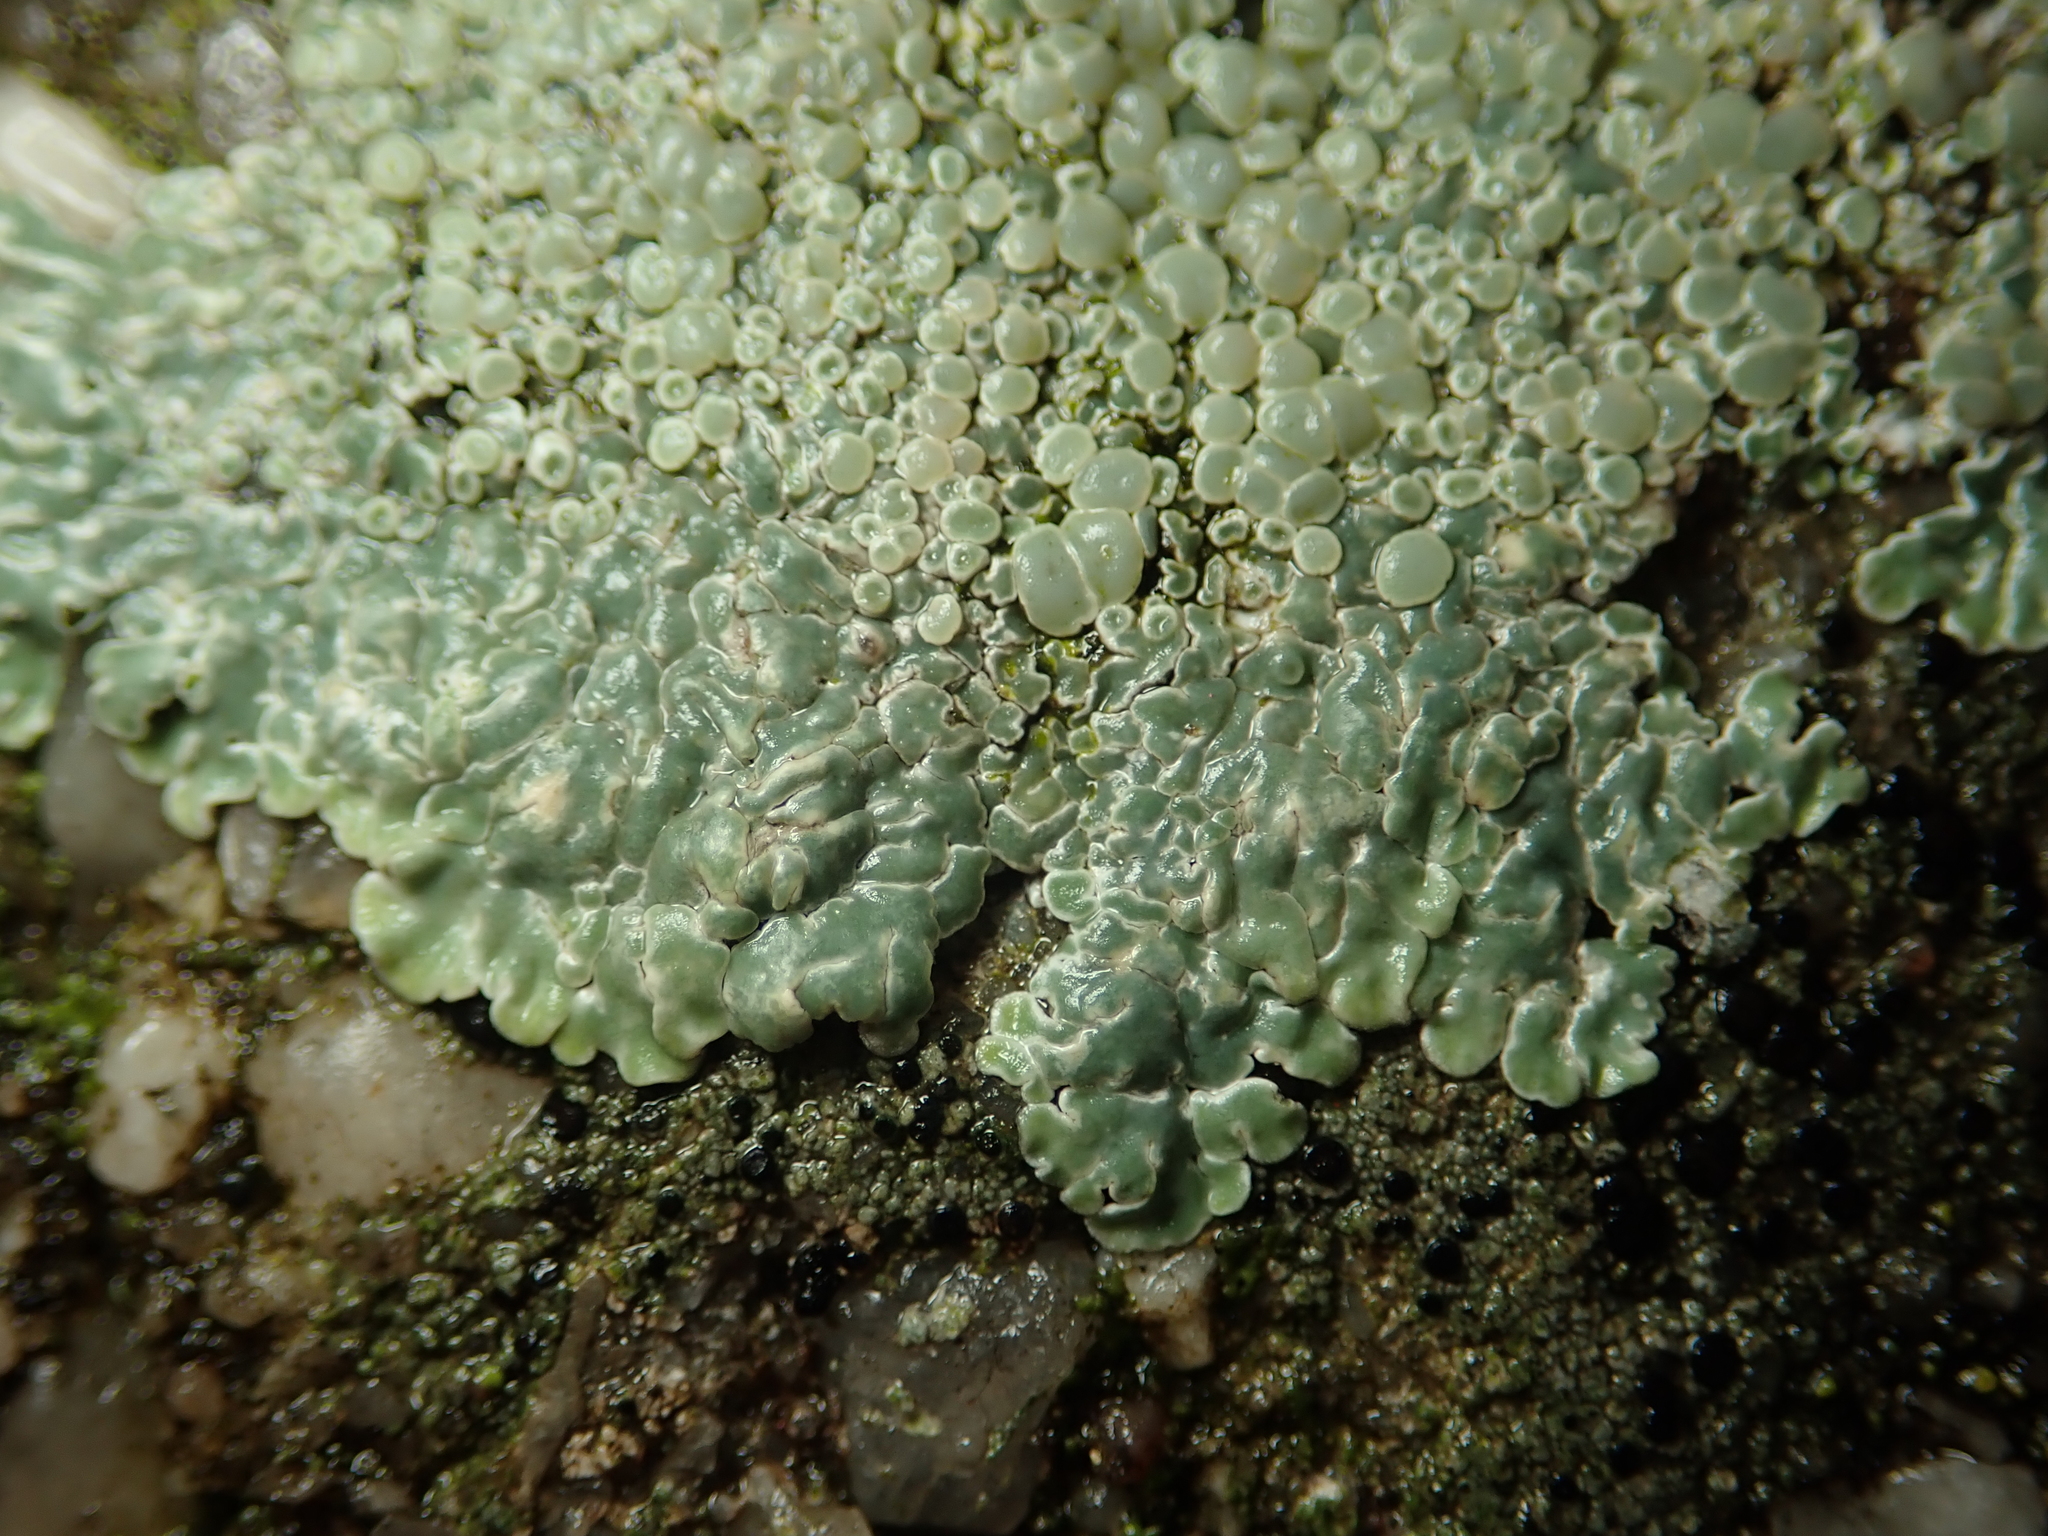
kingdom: Fungi
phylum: Ascomycota
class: Lecanoromycetes
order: Lecanorales
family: Lecanoraceae
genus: Protoparmeliopsis
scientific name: Protoparmeliopsis muralis
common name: Stonewall rim lichen
